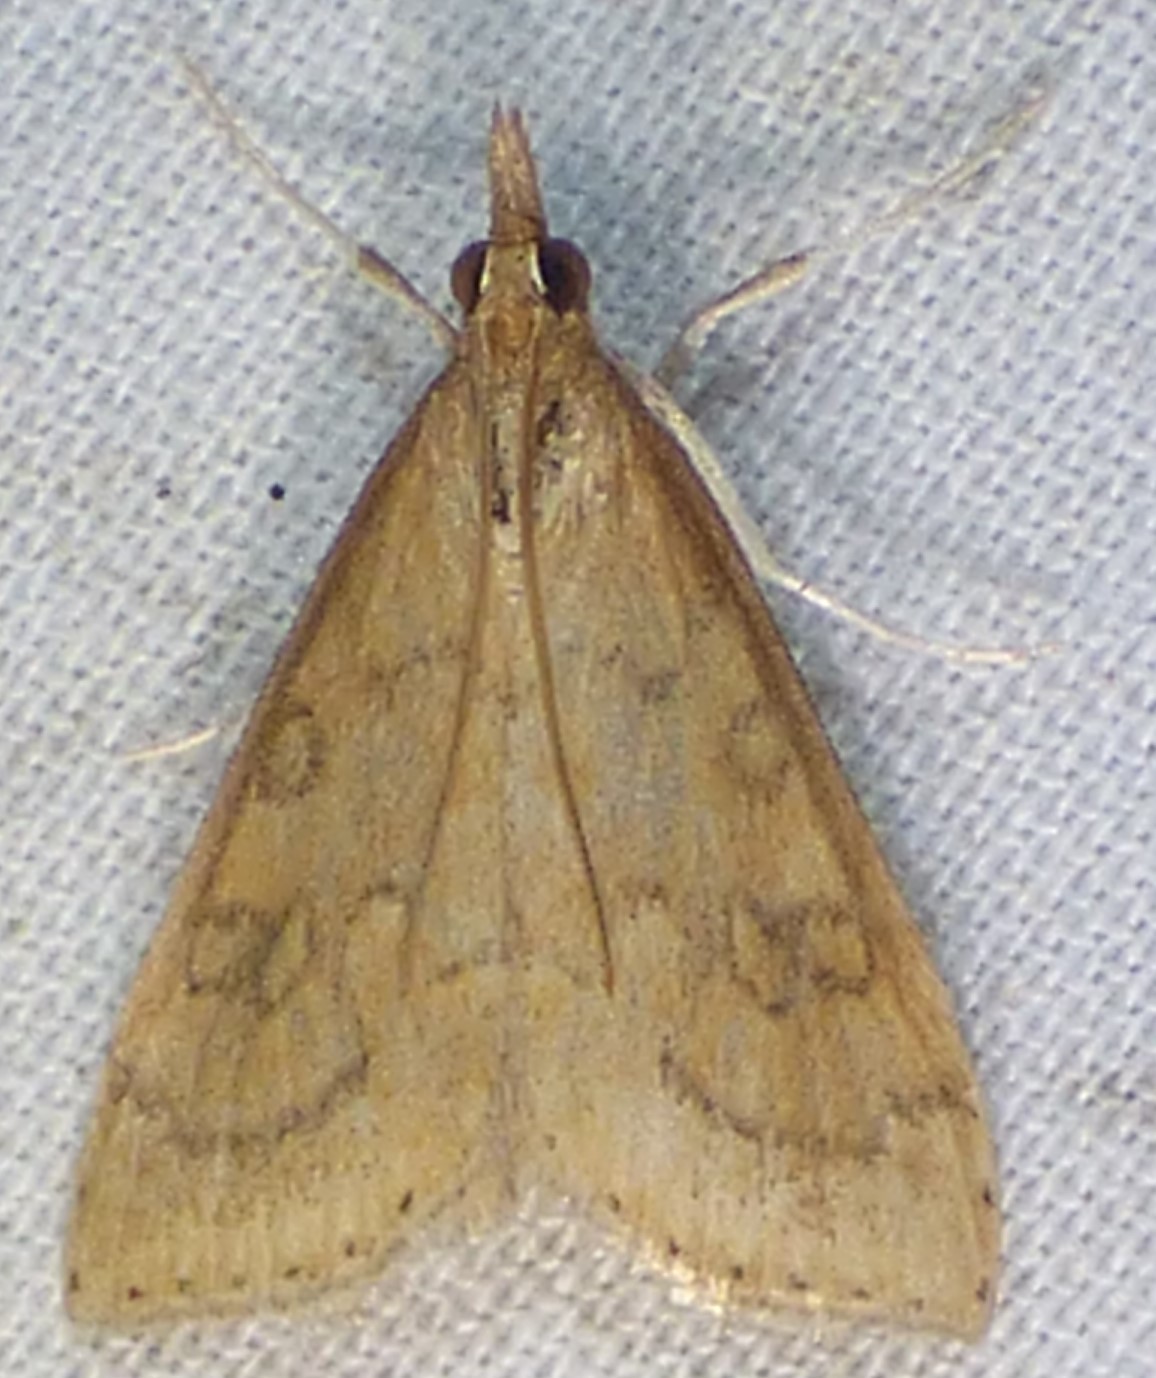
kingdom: Animalia
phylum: Arthropoda
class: Insecta
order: Lepidoptera
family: Crambidae
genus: Udea
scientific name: Udea rubigalis
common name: Celery leaftier moth
